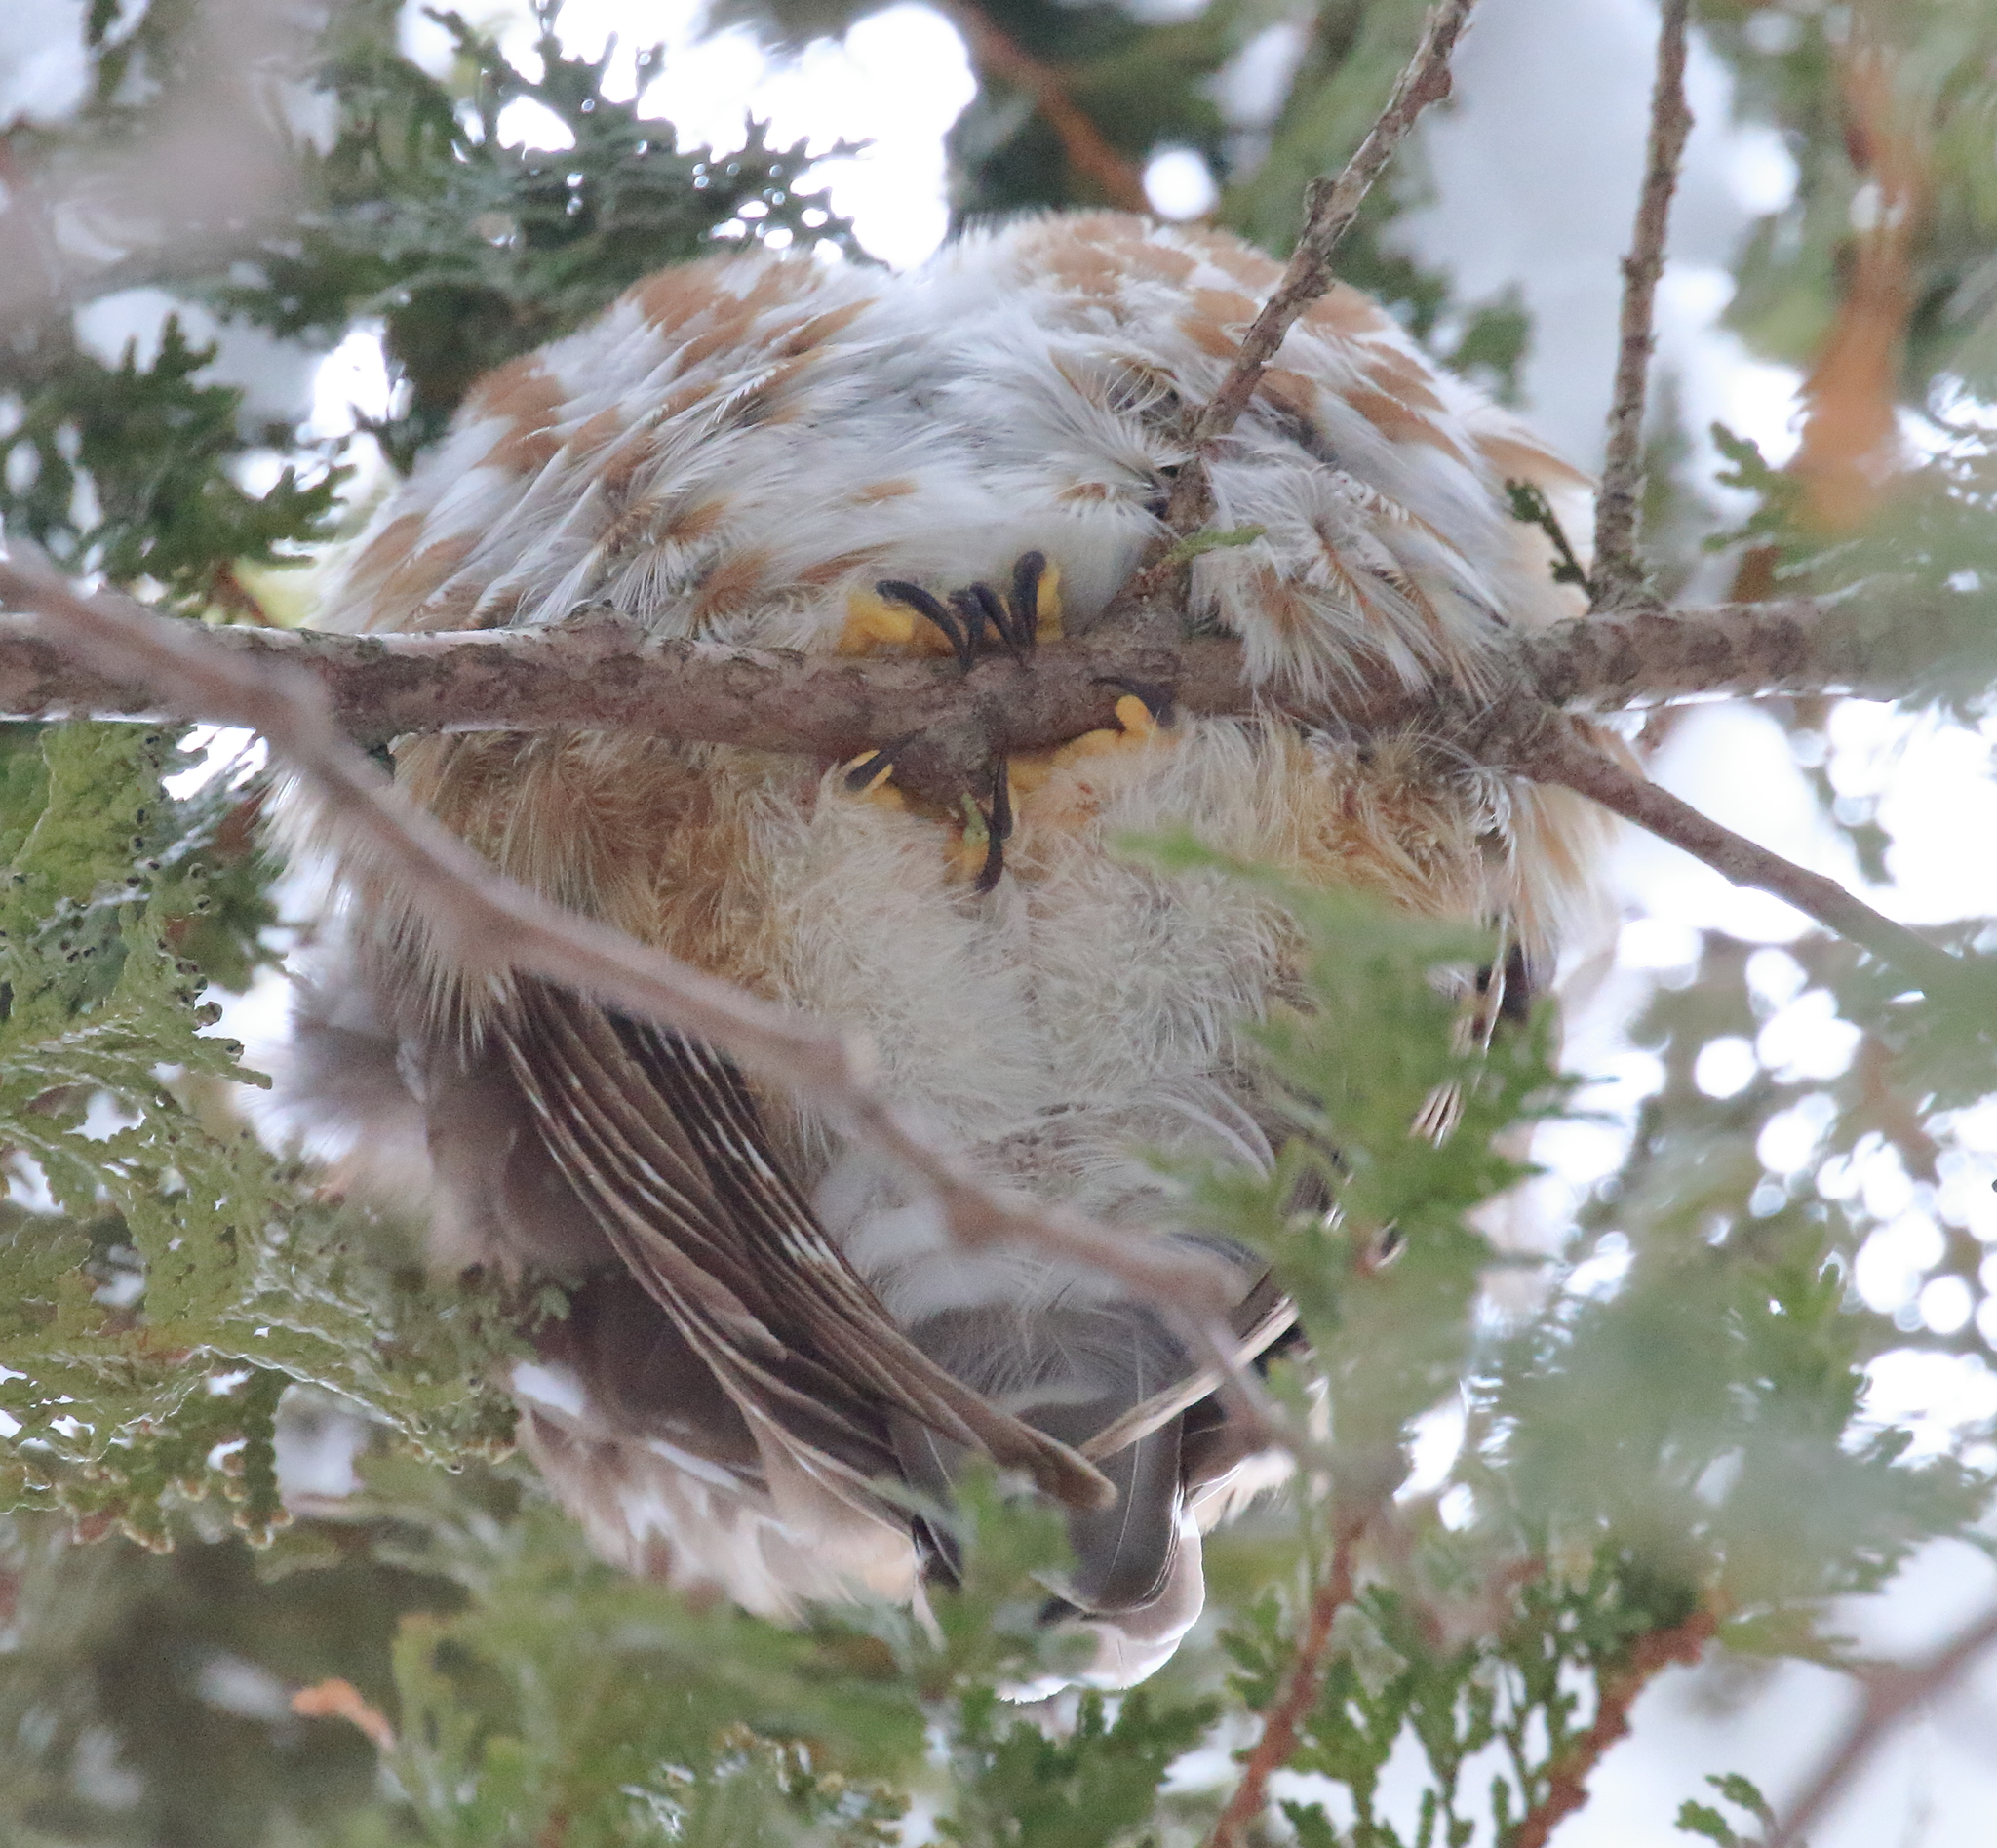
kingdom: Animalia
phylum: Chordata
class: Aves
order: Strigiformes
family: Strigidae
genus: Aegolius
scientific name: Aegolius acadicus
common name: Northern saw-whet owl
